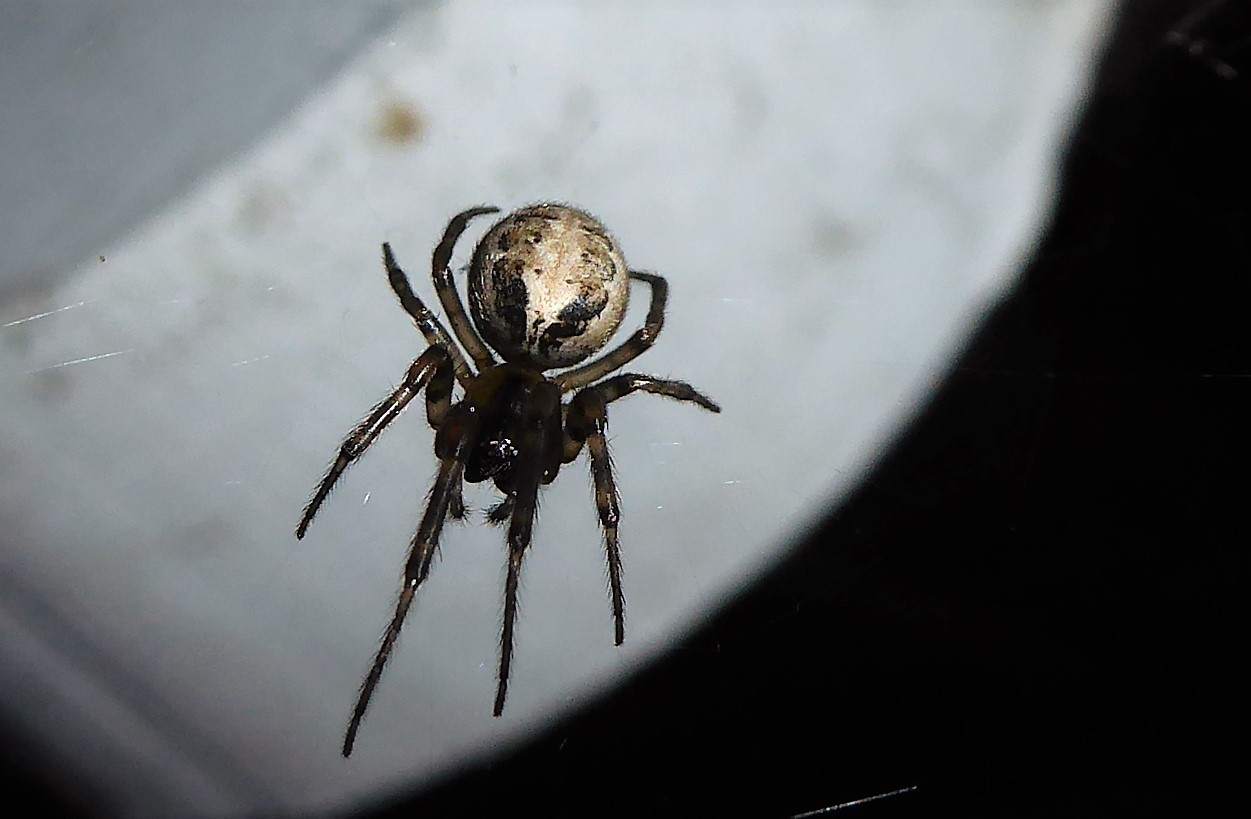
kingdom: Animalia
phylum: Arthropoda
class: Arachnida
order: Araneae
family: Araneidae
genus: Zygiella
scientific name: Zygiella x-notata
